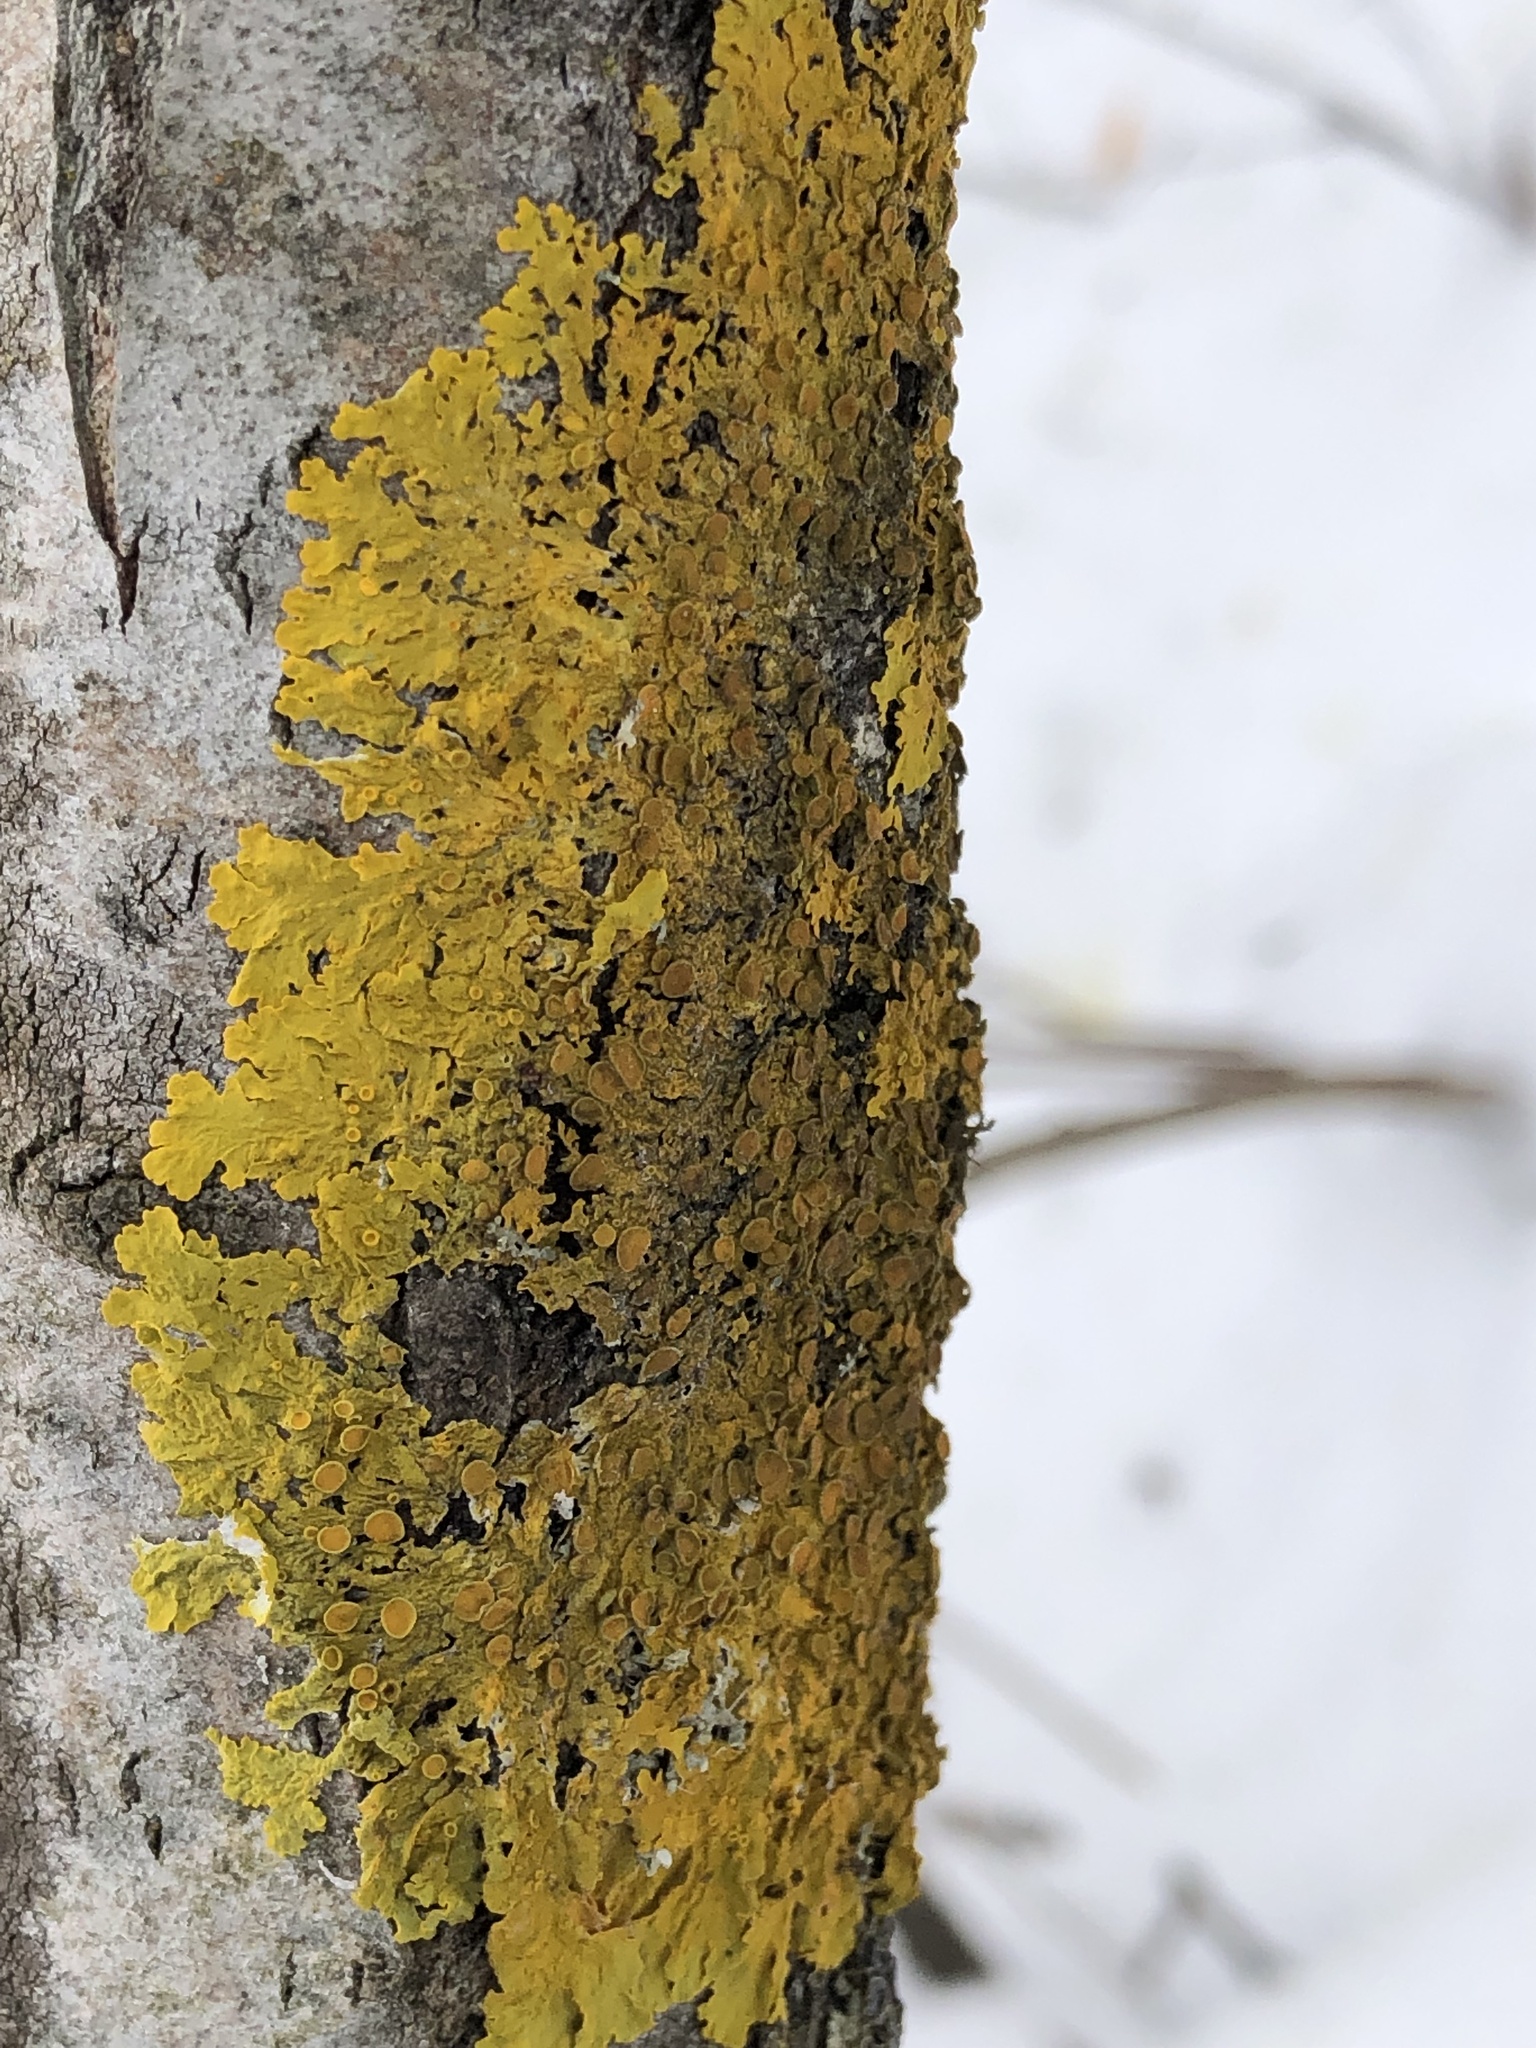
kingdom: Fungi
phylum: Ascomycota
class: Lecanoromycetes
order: Teloschistales
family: Teloschistaceae
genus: Xanthoria
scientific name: Xanthoria parietina
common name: Common orange lichen
